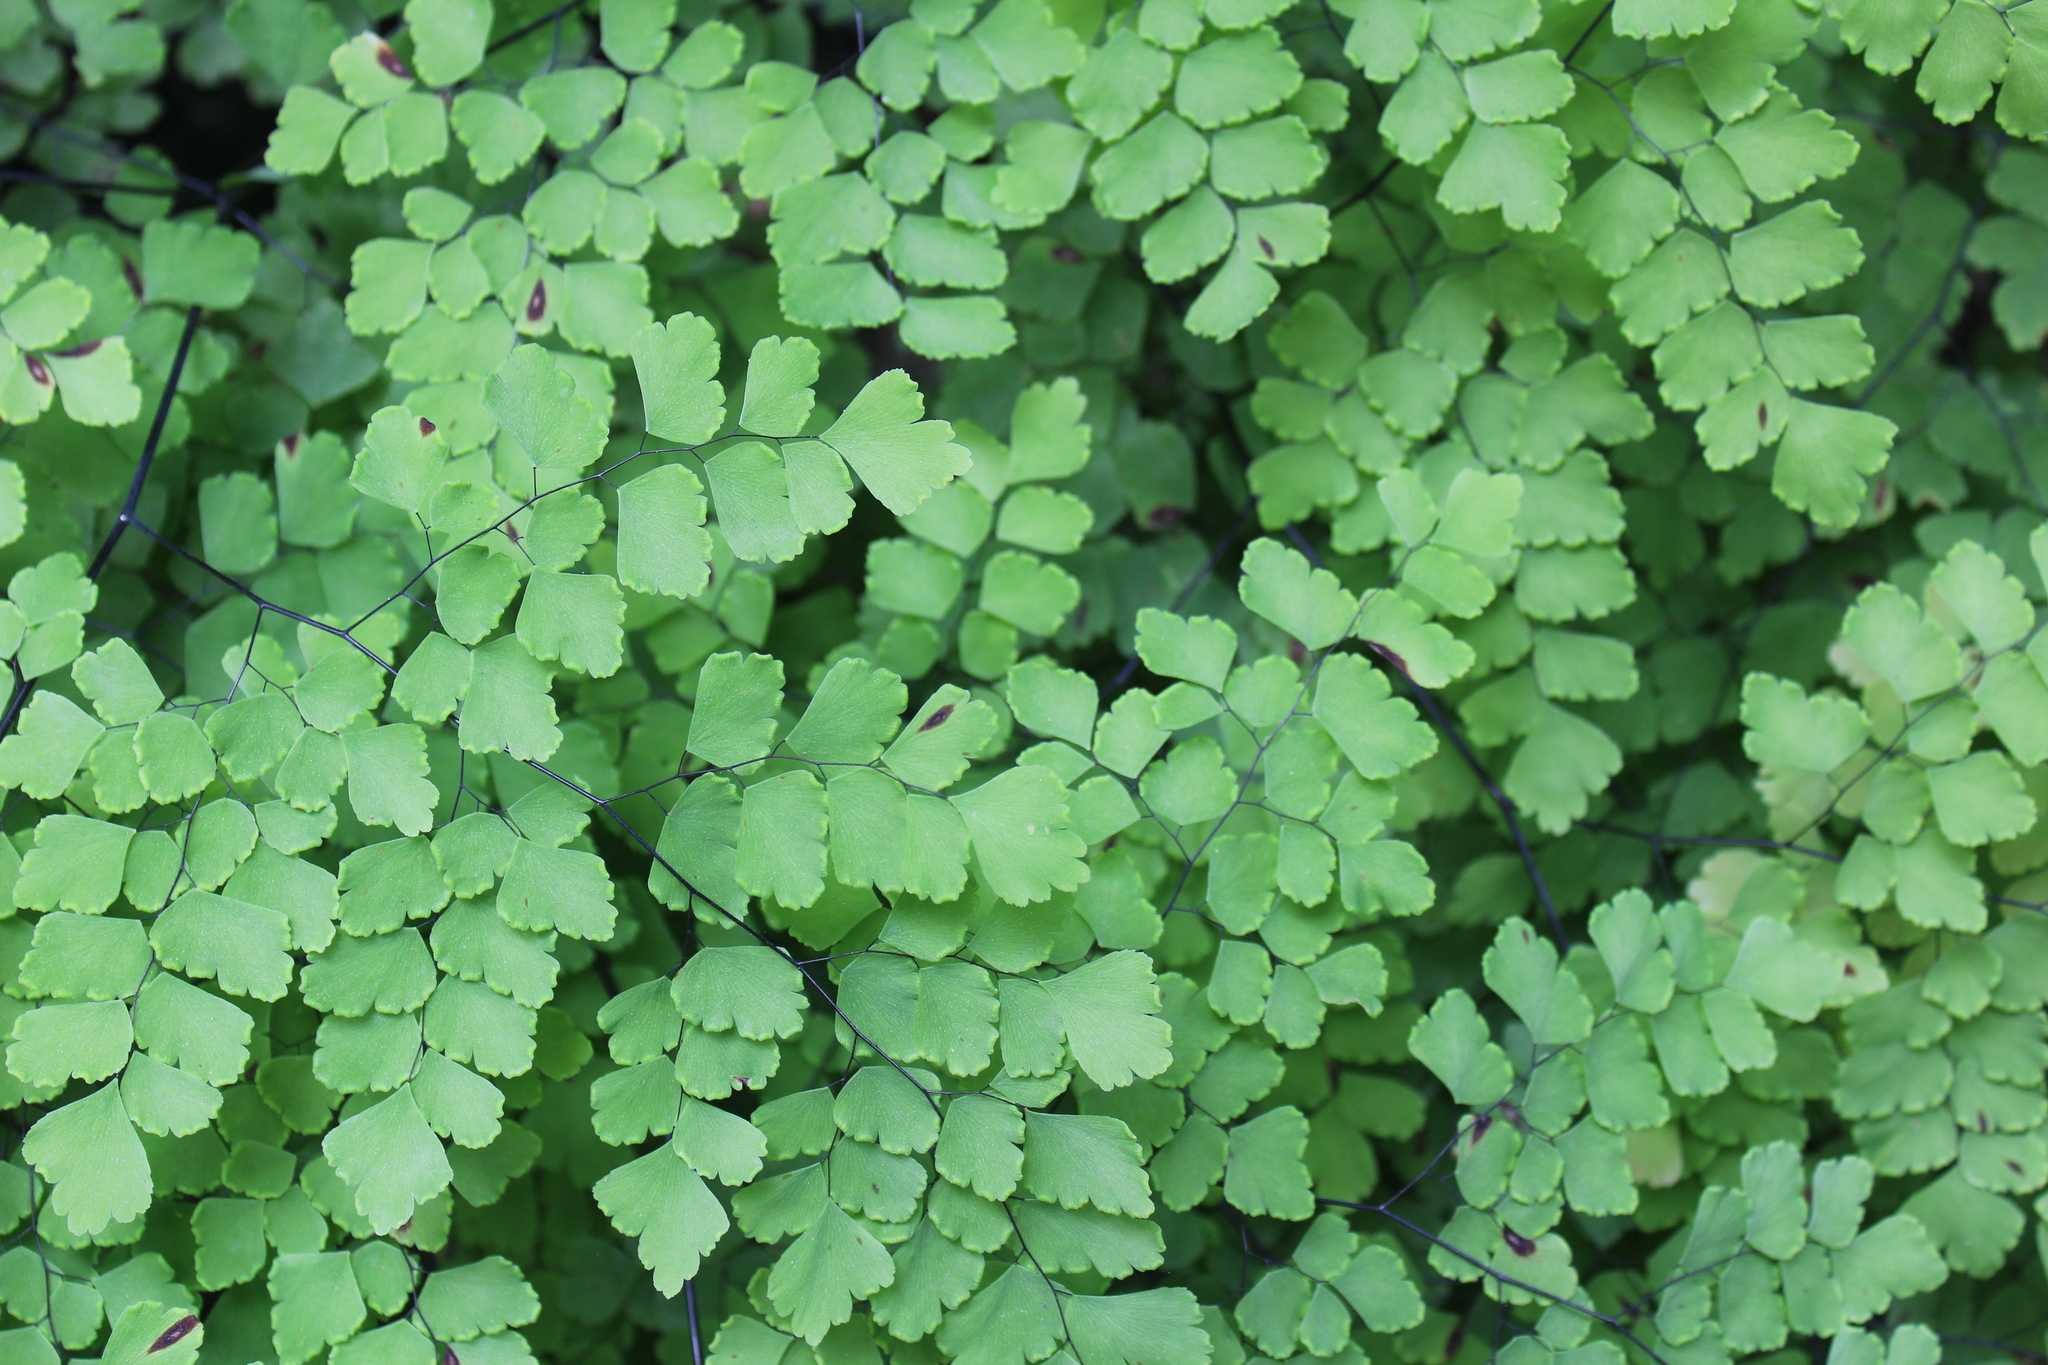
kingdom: Plantae
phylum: Tracheophyta
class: Polypodiopsida
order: Polypodiales
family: Pteridaceae
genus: Adiantum
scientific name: Adiantum tenerum
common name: Fan maidenhair
